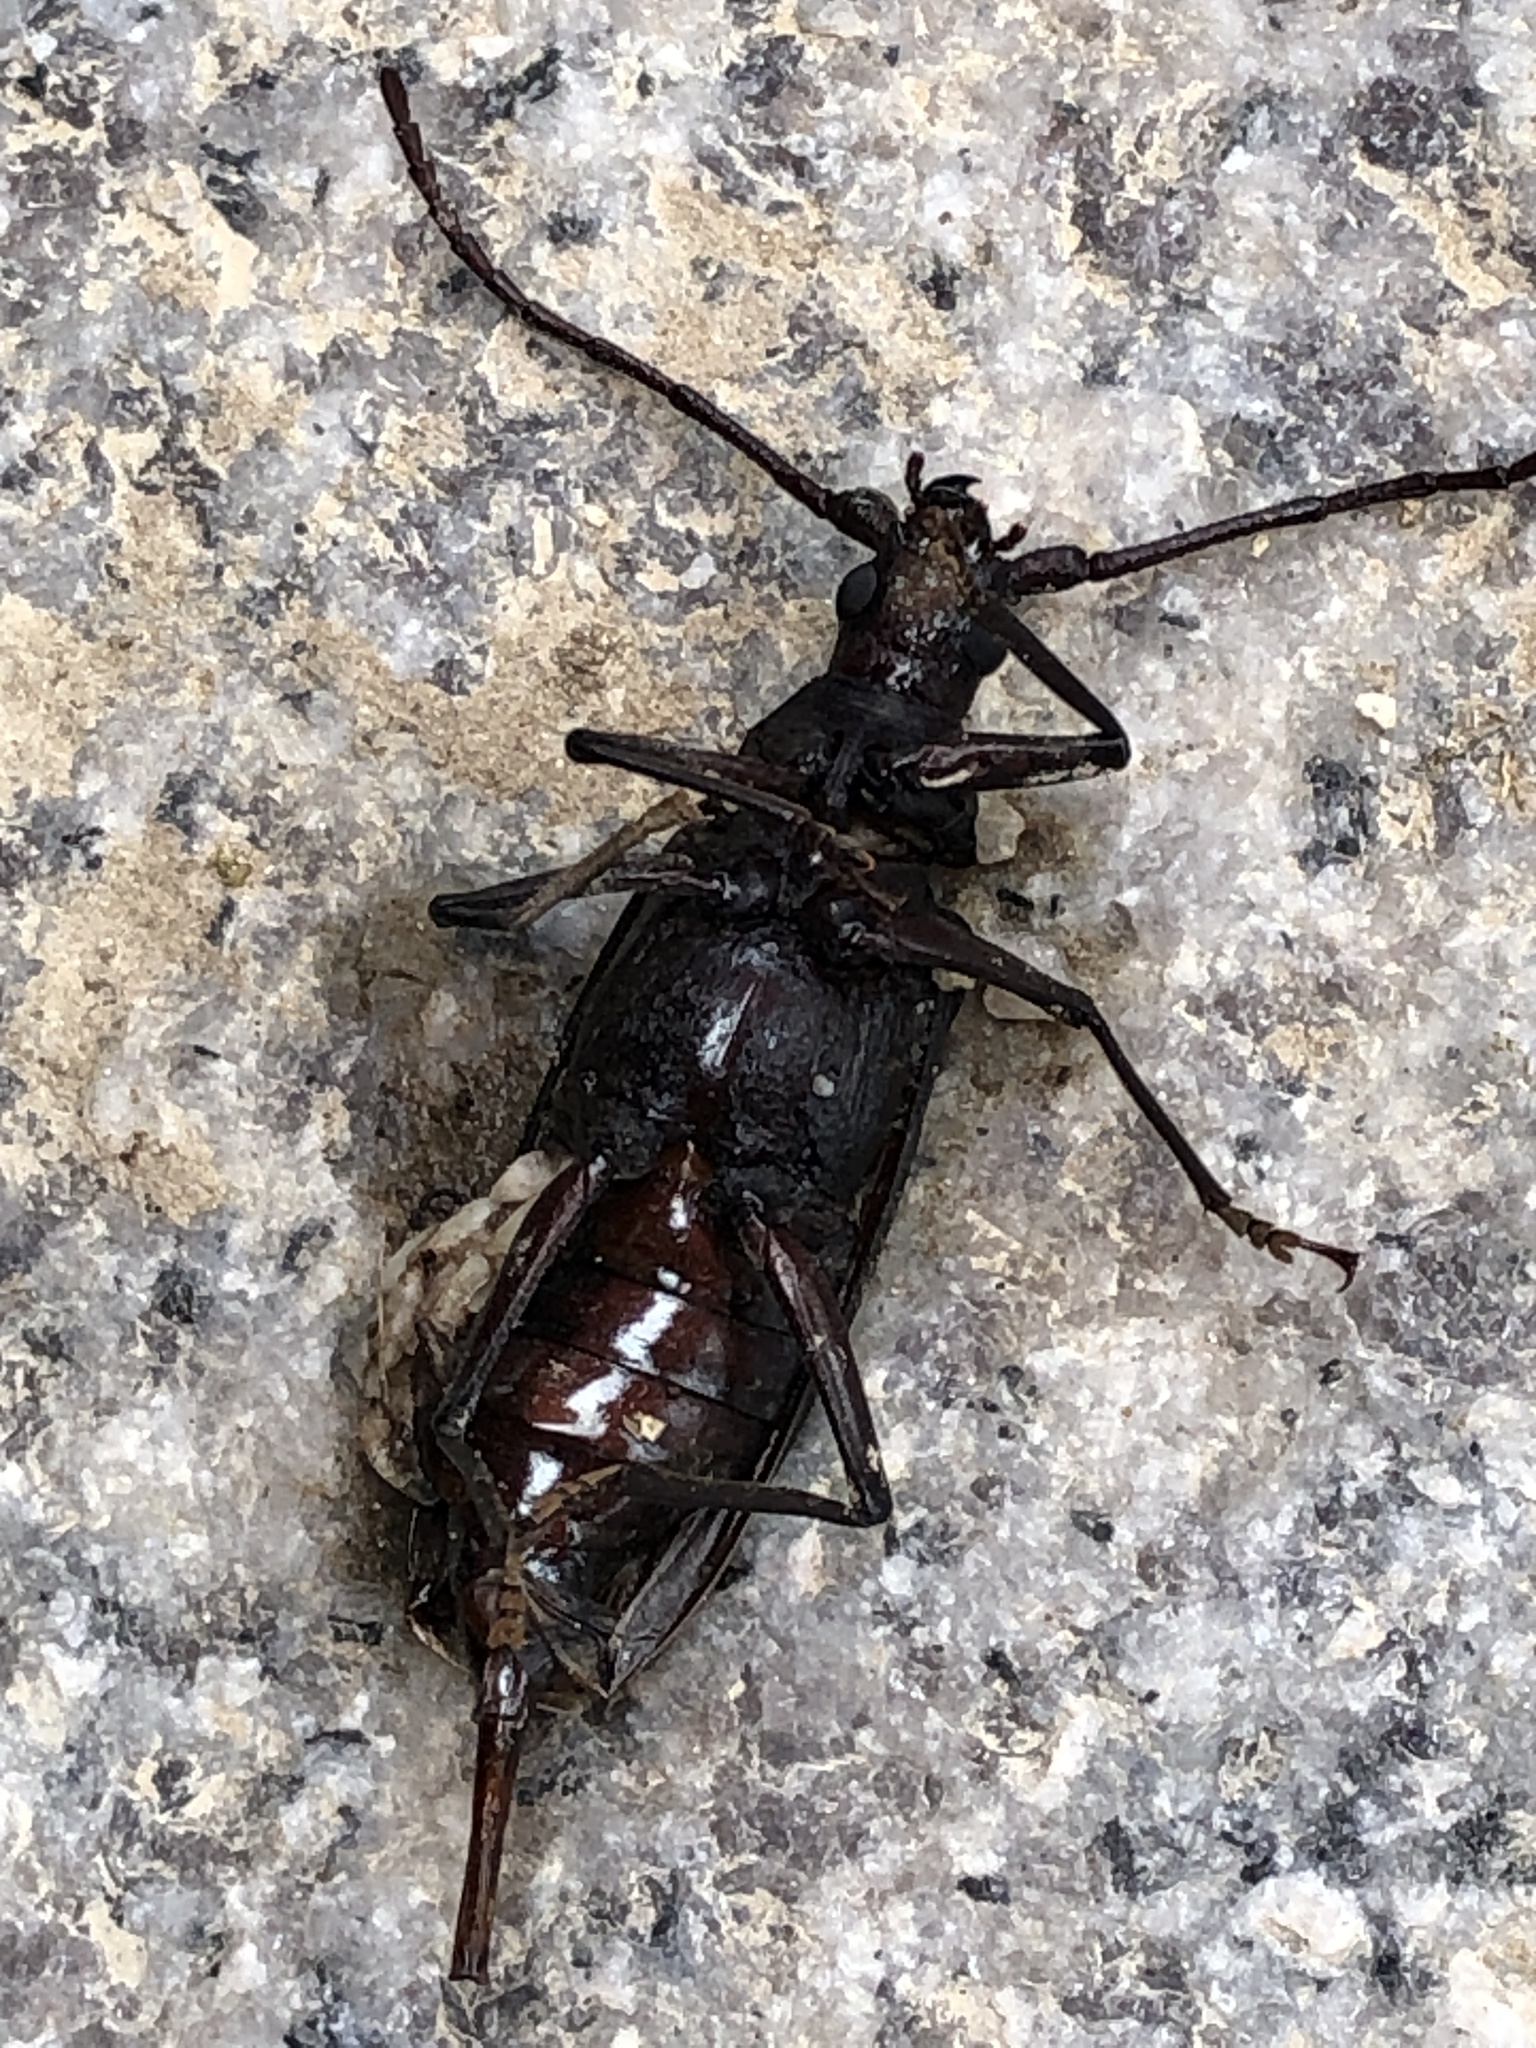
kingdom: Animalia
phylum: Arthropoda
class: Insecta
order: Coleoptera
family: Cerambycidae
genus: Aegosoma
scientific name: Aegosoma sinicum
